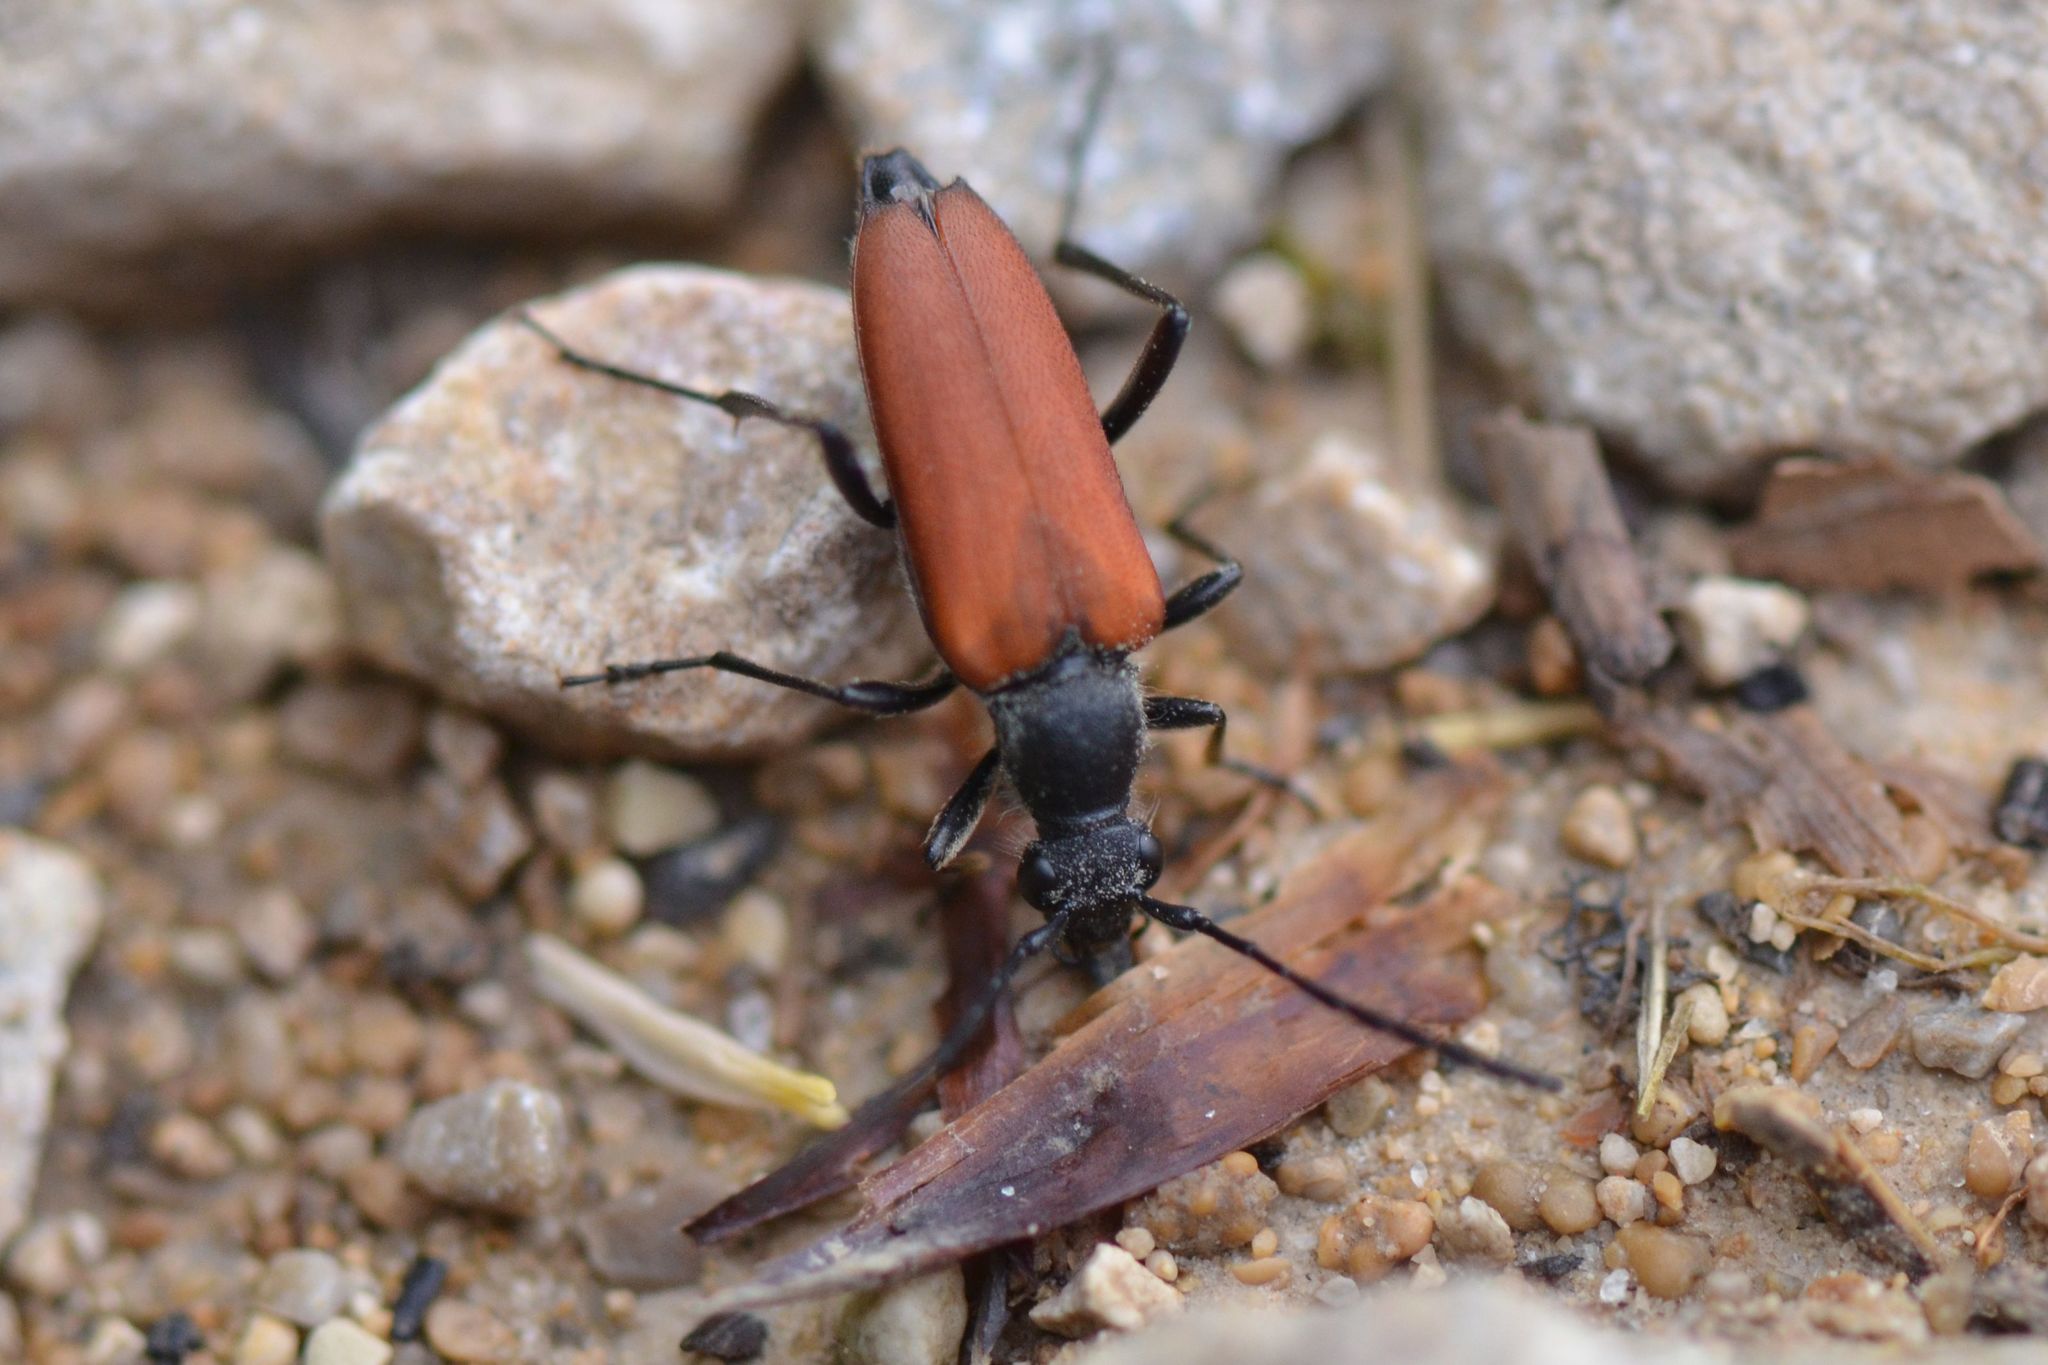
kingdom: Animalia
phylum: Arthropoda
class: Insecta
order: Coleoptera
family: Cerambycidae
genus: Anastrangalia
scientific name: Anastrangalia sanguinolenta
